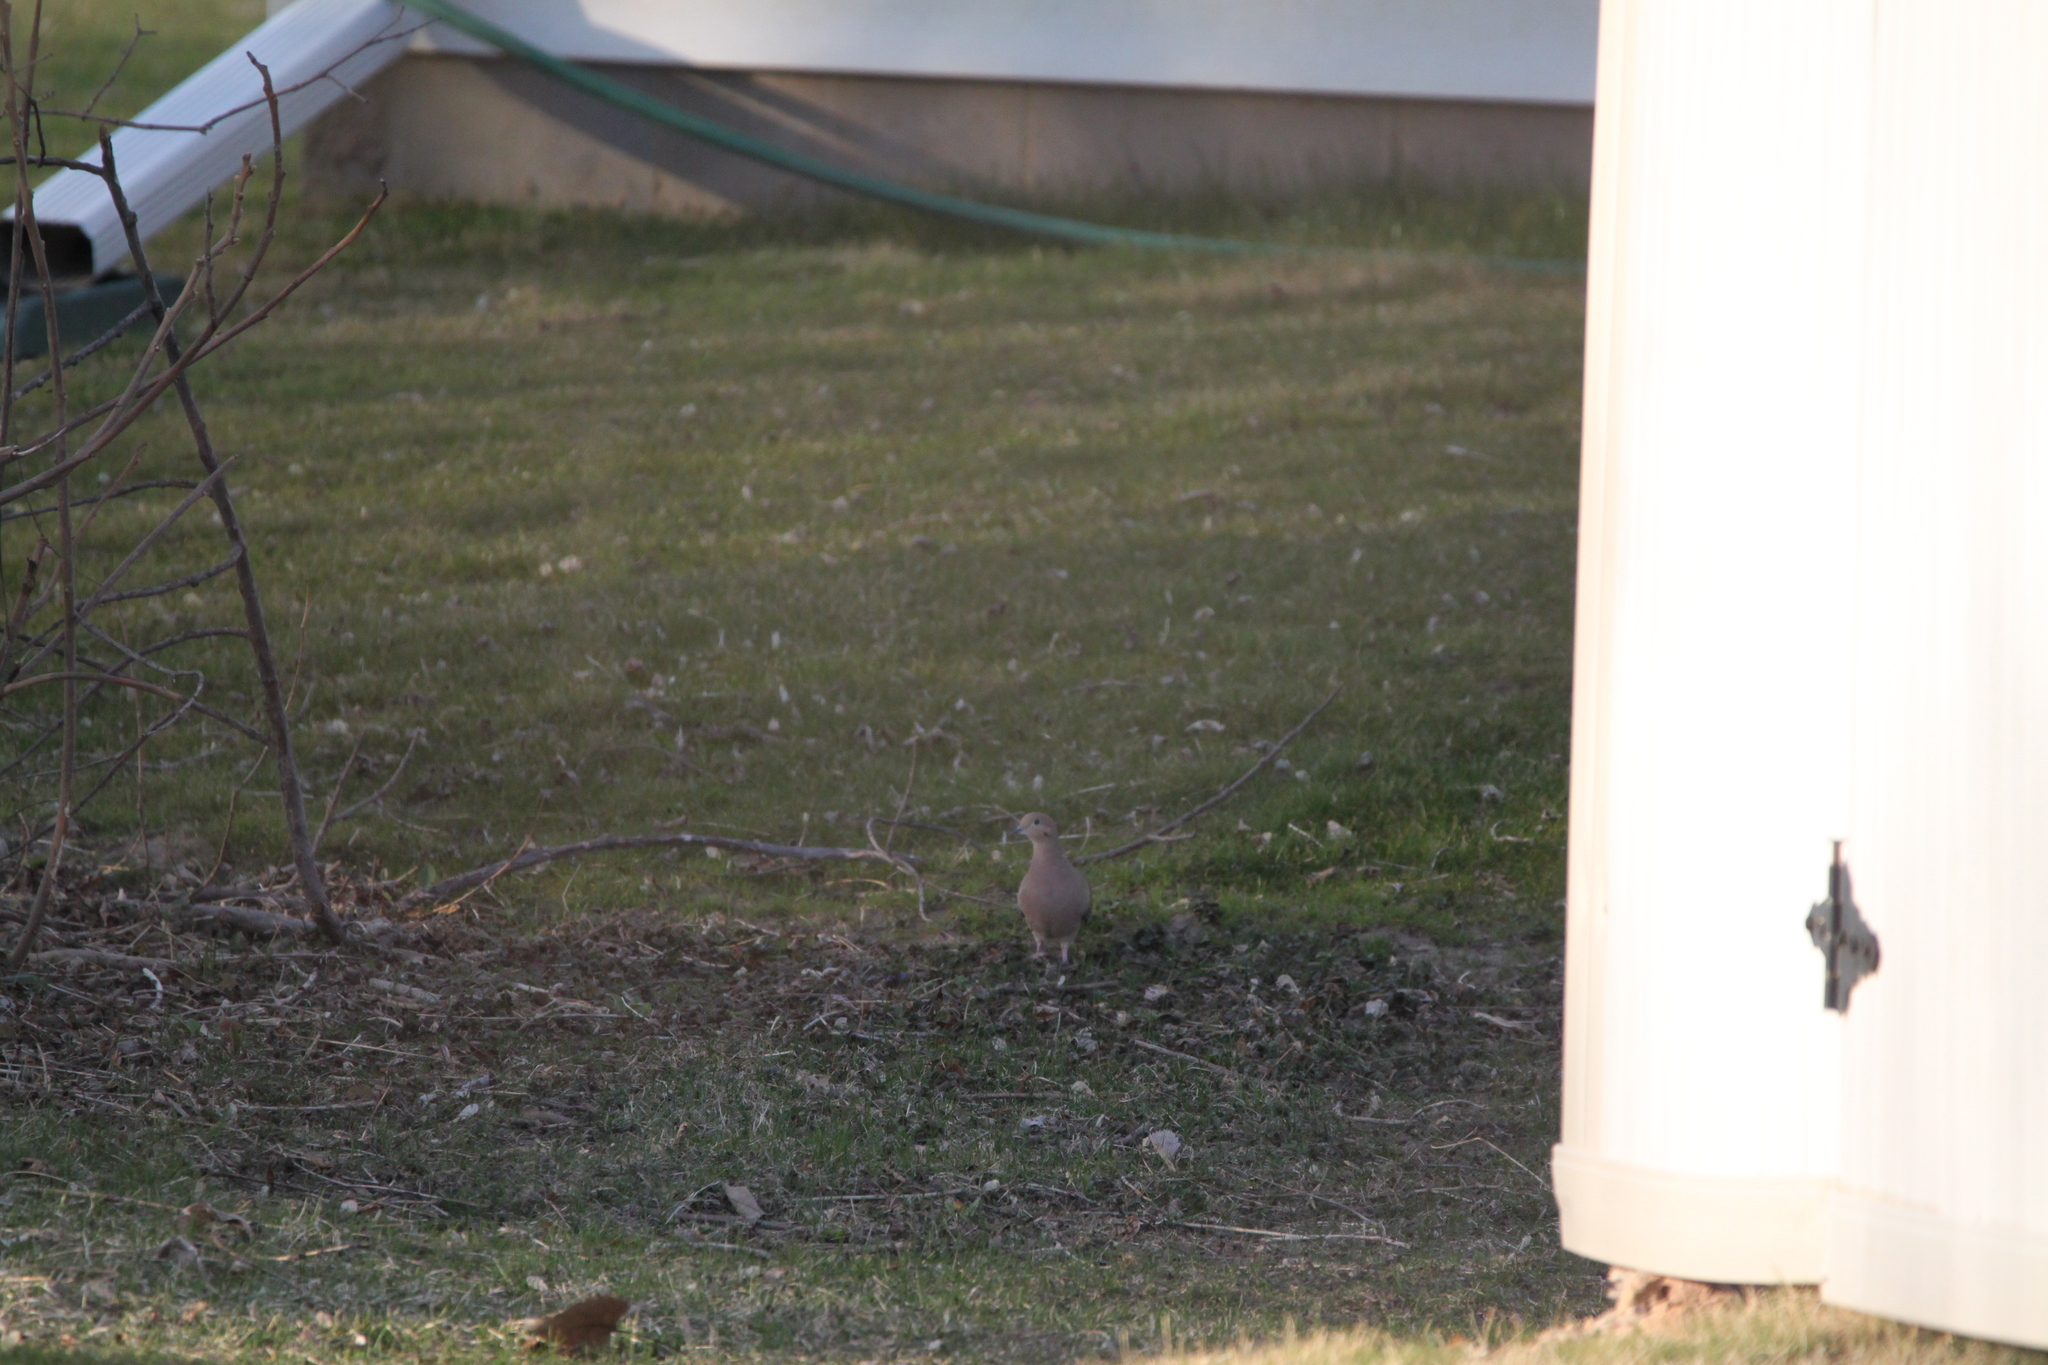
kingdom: Animalia
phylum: Chordata
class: Aves
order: Columbiformes
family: Columbidae
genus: Zenaida
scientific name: Zenaida macroura
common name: Mourning dove
